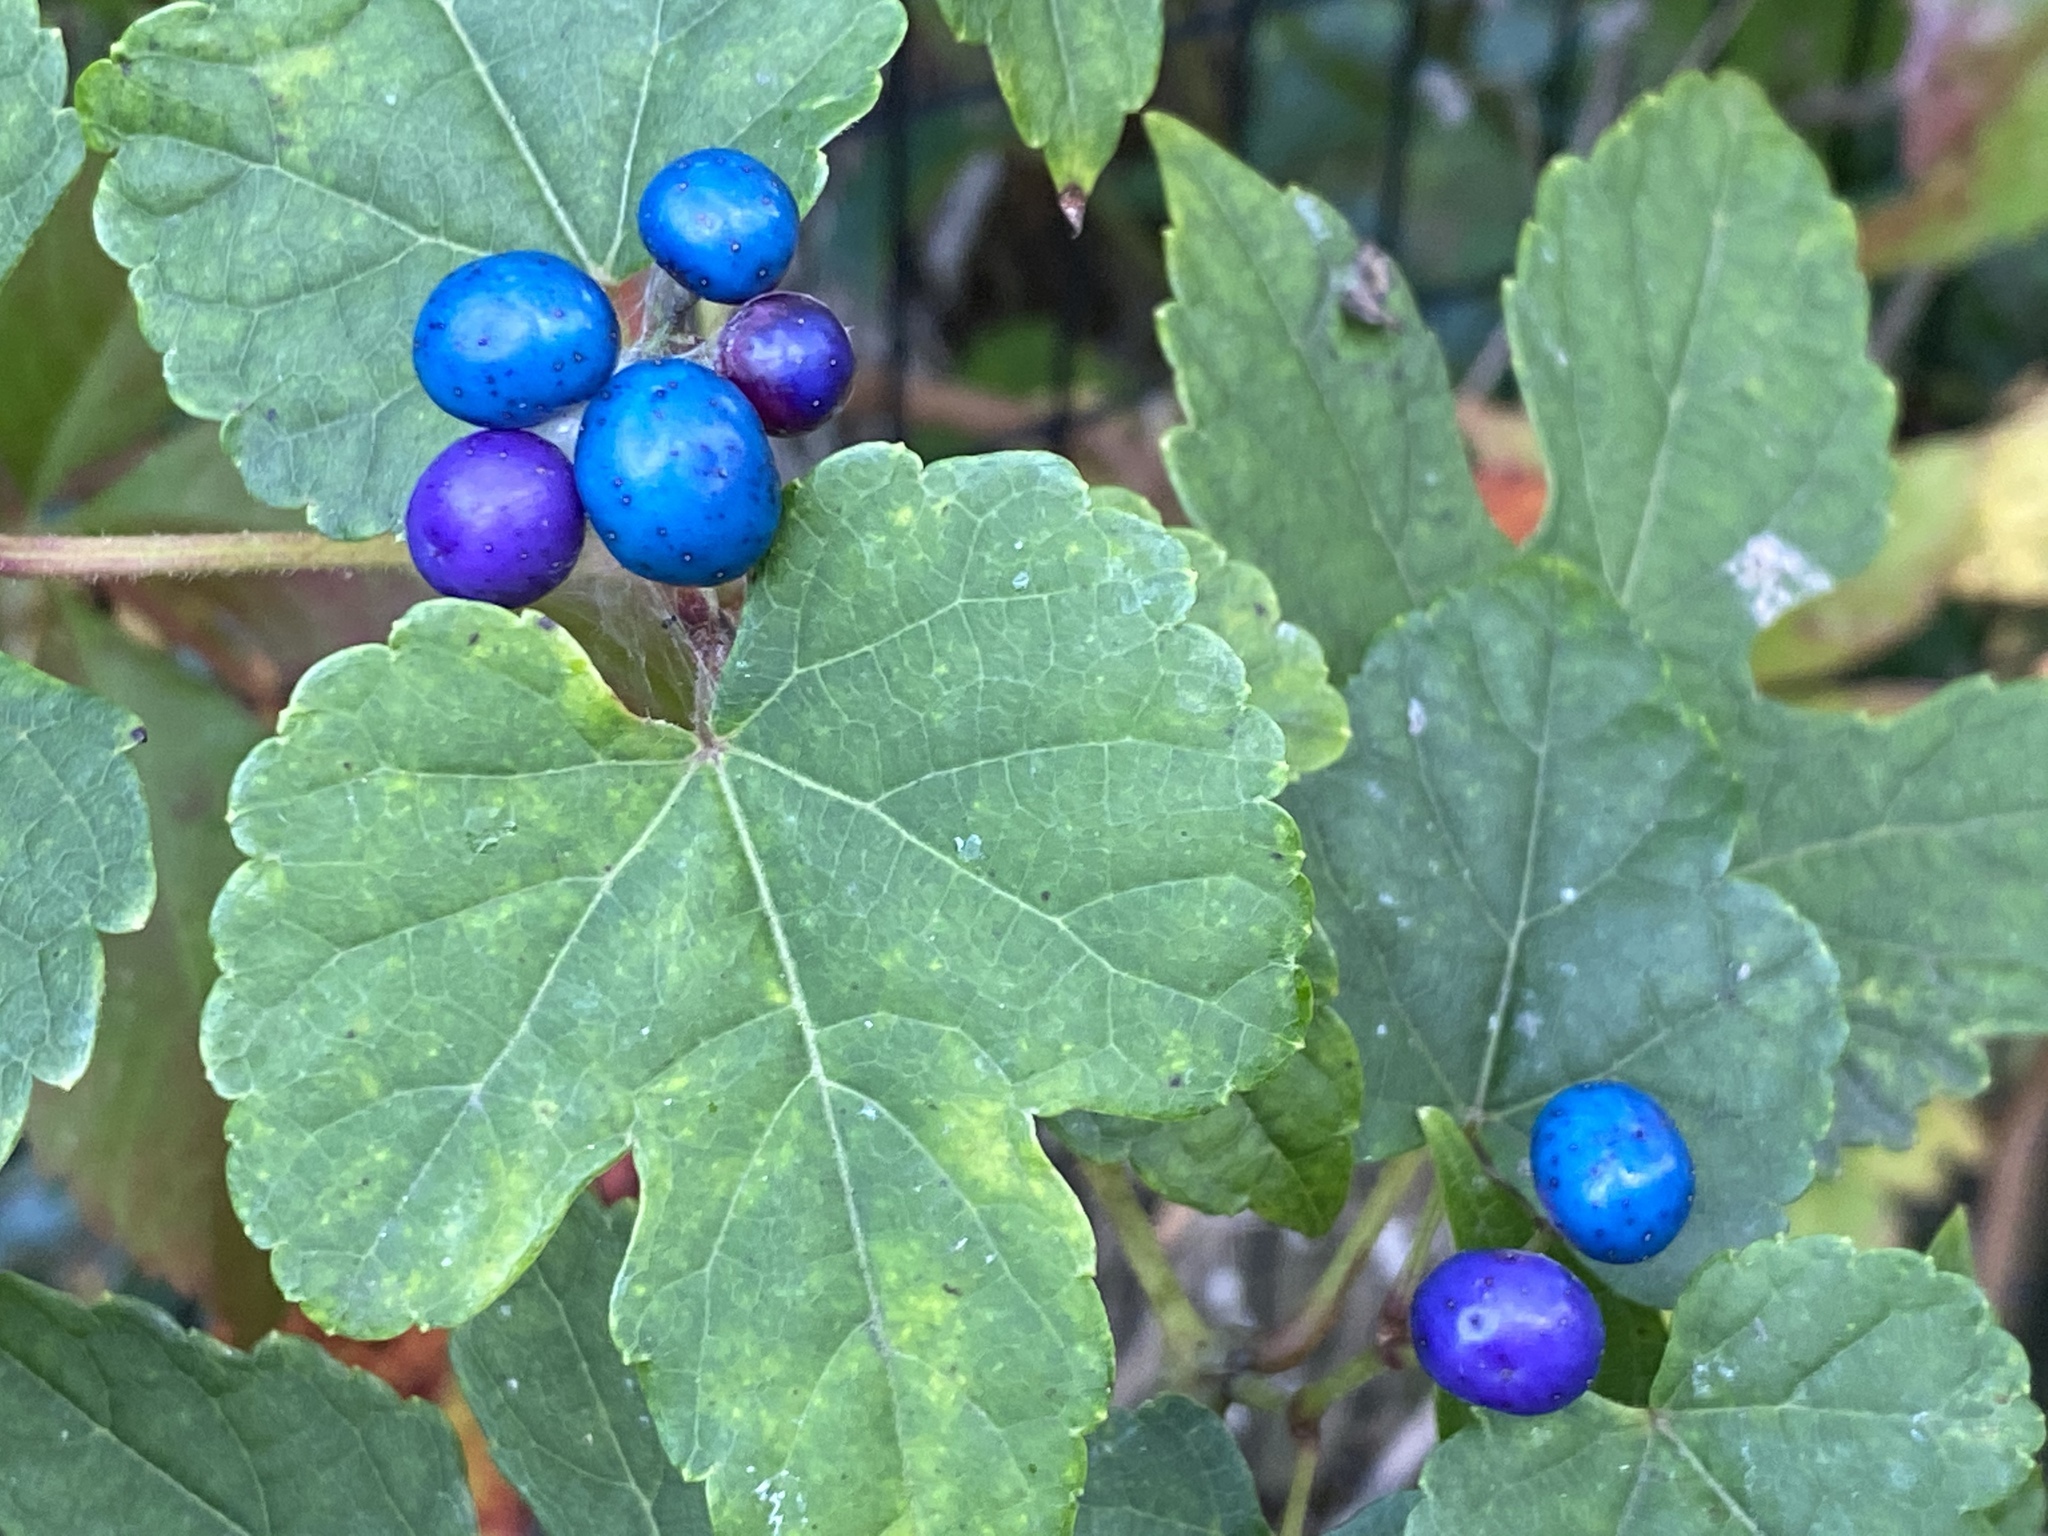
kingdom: Plantae
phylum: Tracheophyta
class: Magnoliopsida
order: Vitales
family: Vitaceae
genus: Ampelopsis
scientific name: Ampelopsis glandulosa
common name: Amur peppervine
